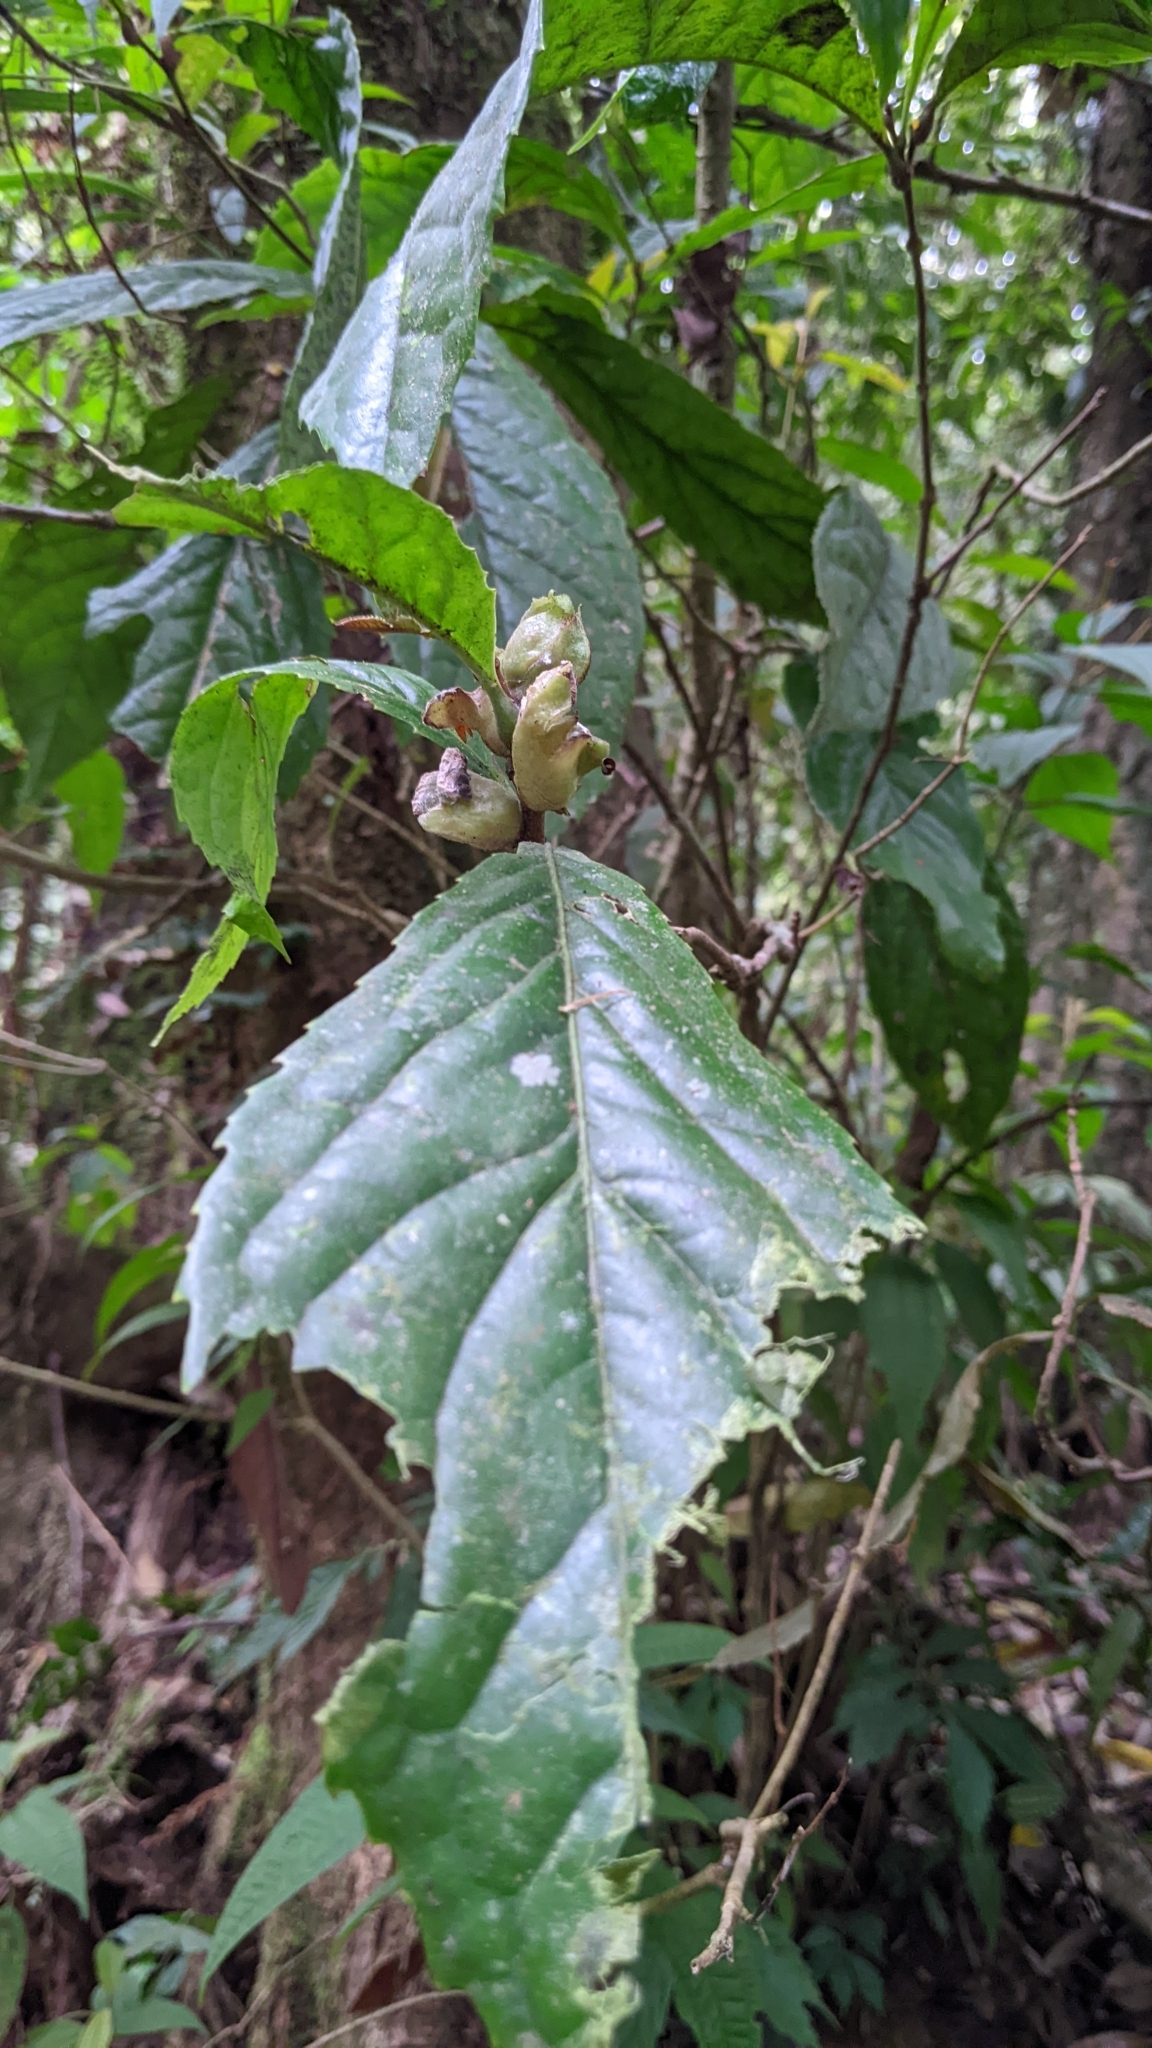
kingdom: Plantae
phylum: Tracheophyta
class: Magnoliopsida
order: Proteales
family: Proteaceae
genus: Helicia
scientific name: Helicia formosana
